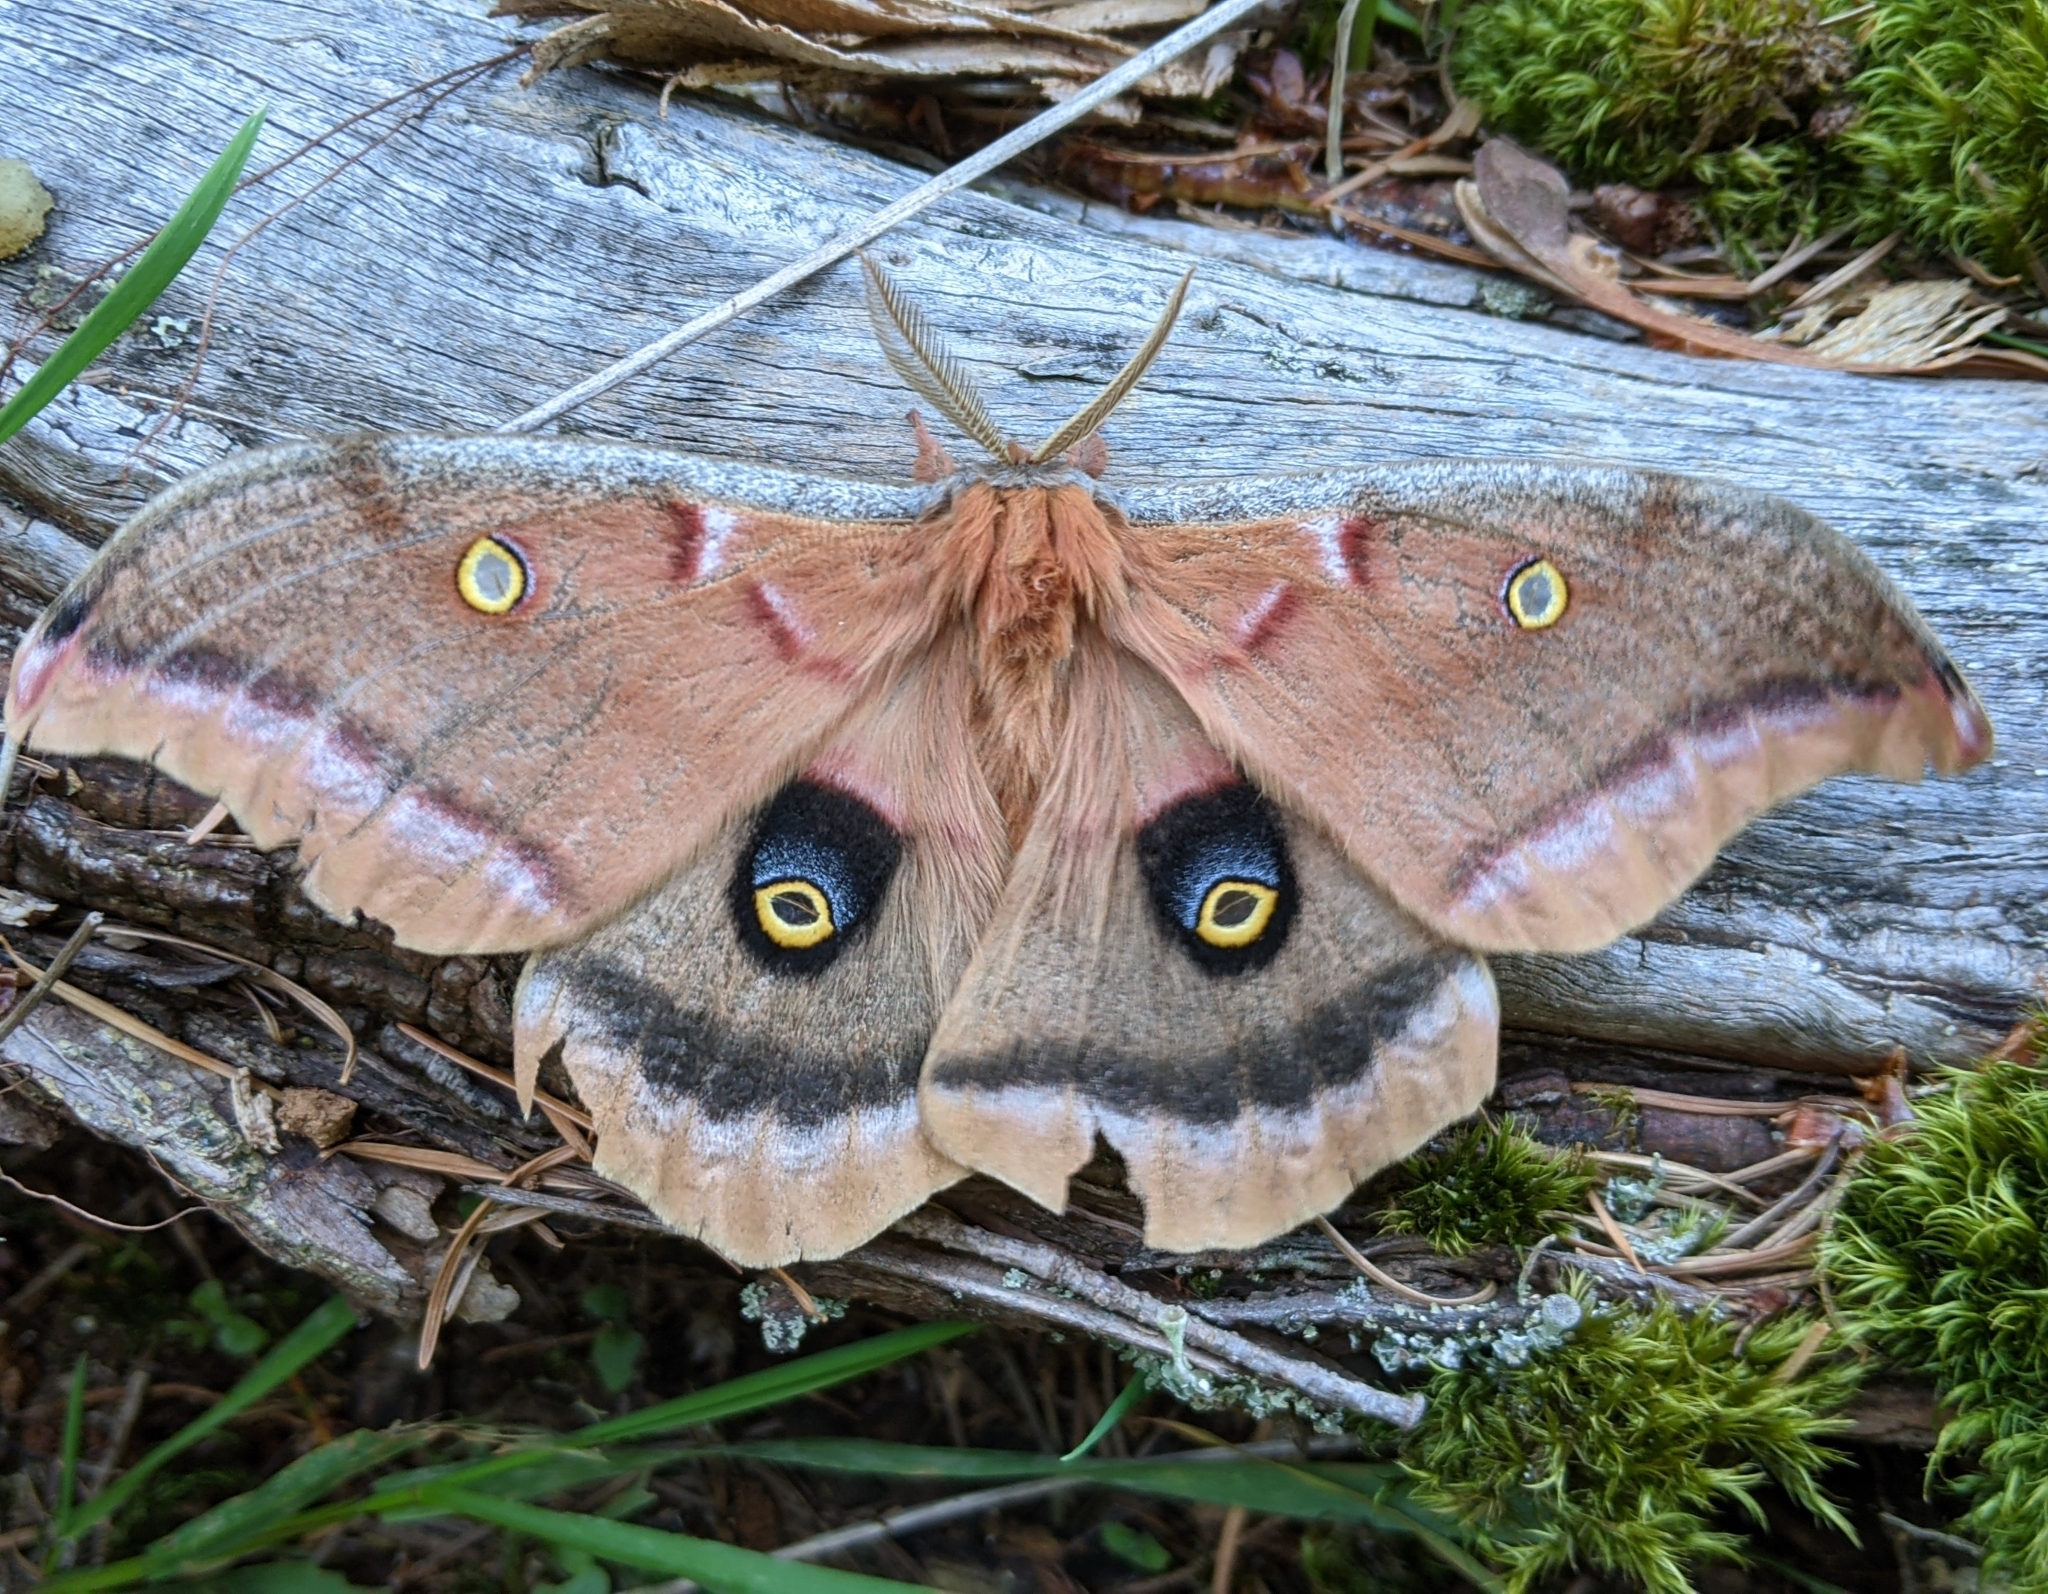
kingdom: Animalia
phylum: Arthropoda
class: Insecta
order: Lepidoptera
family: Saturniidae
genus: Antheraea
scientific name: Antheraea polyphemus
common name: Polyphemus moth
